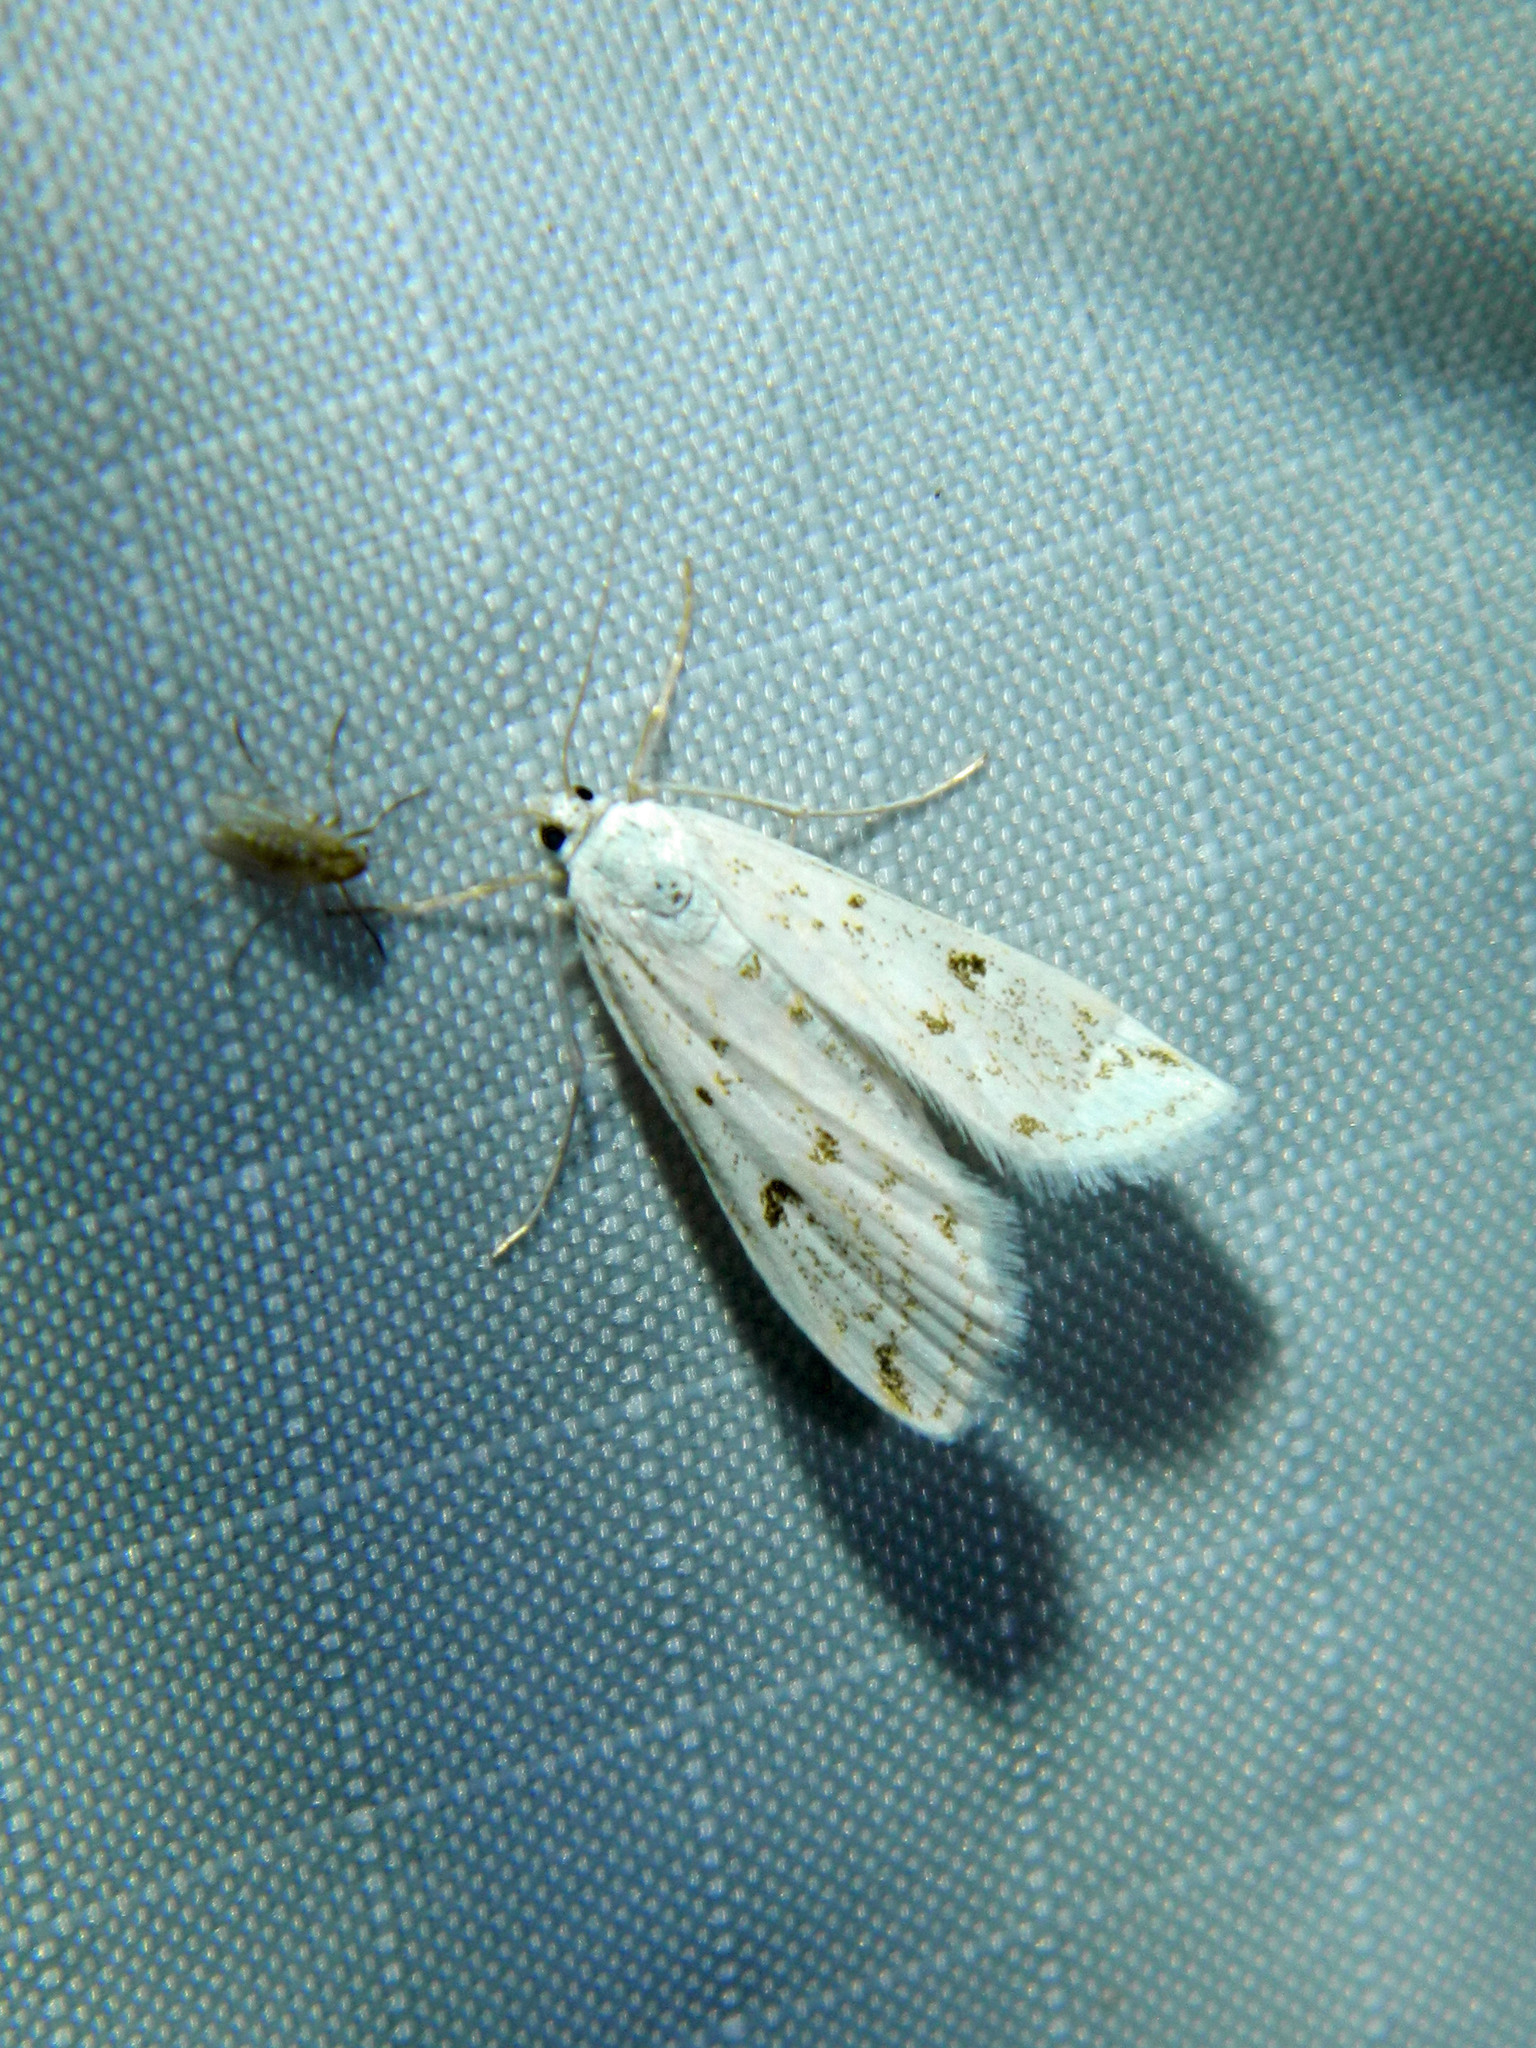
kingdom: Animalia
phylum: Arthropoda
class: Insecta
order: Lepidoptera
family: Crambidae
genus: Parapoynx
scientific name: Parapoynx allionealis
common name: Bladderwort casemaker
